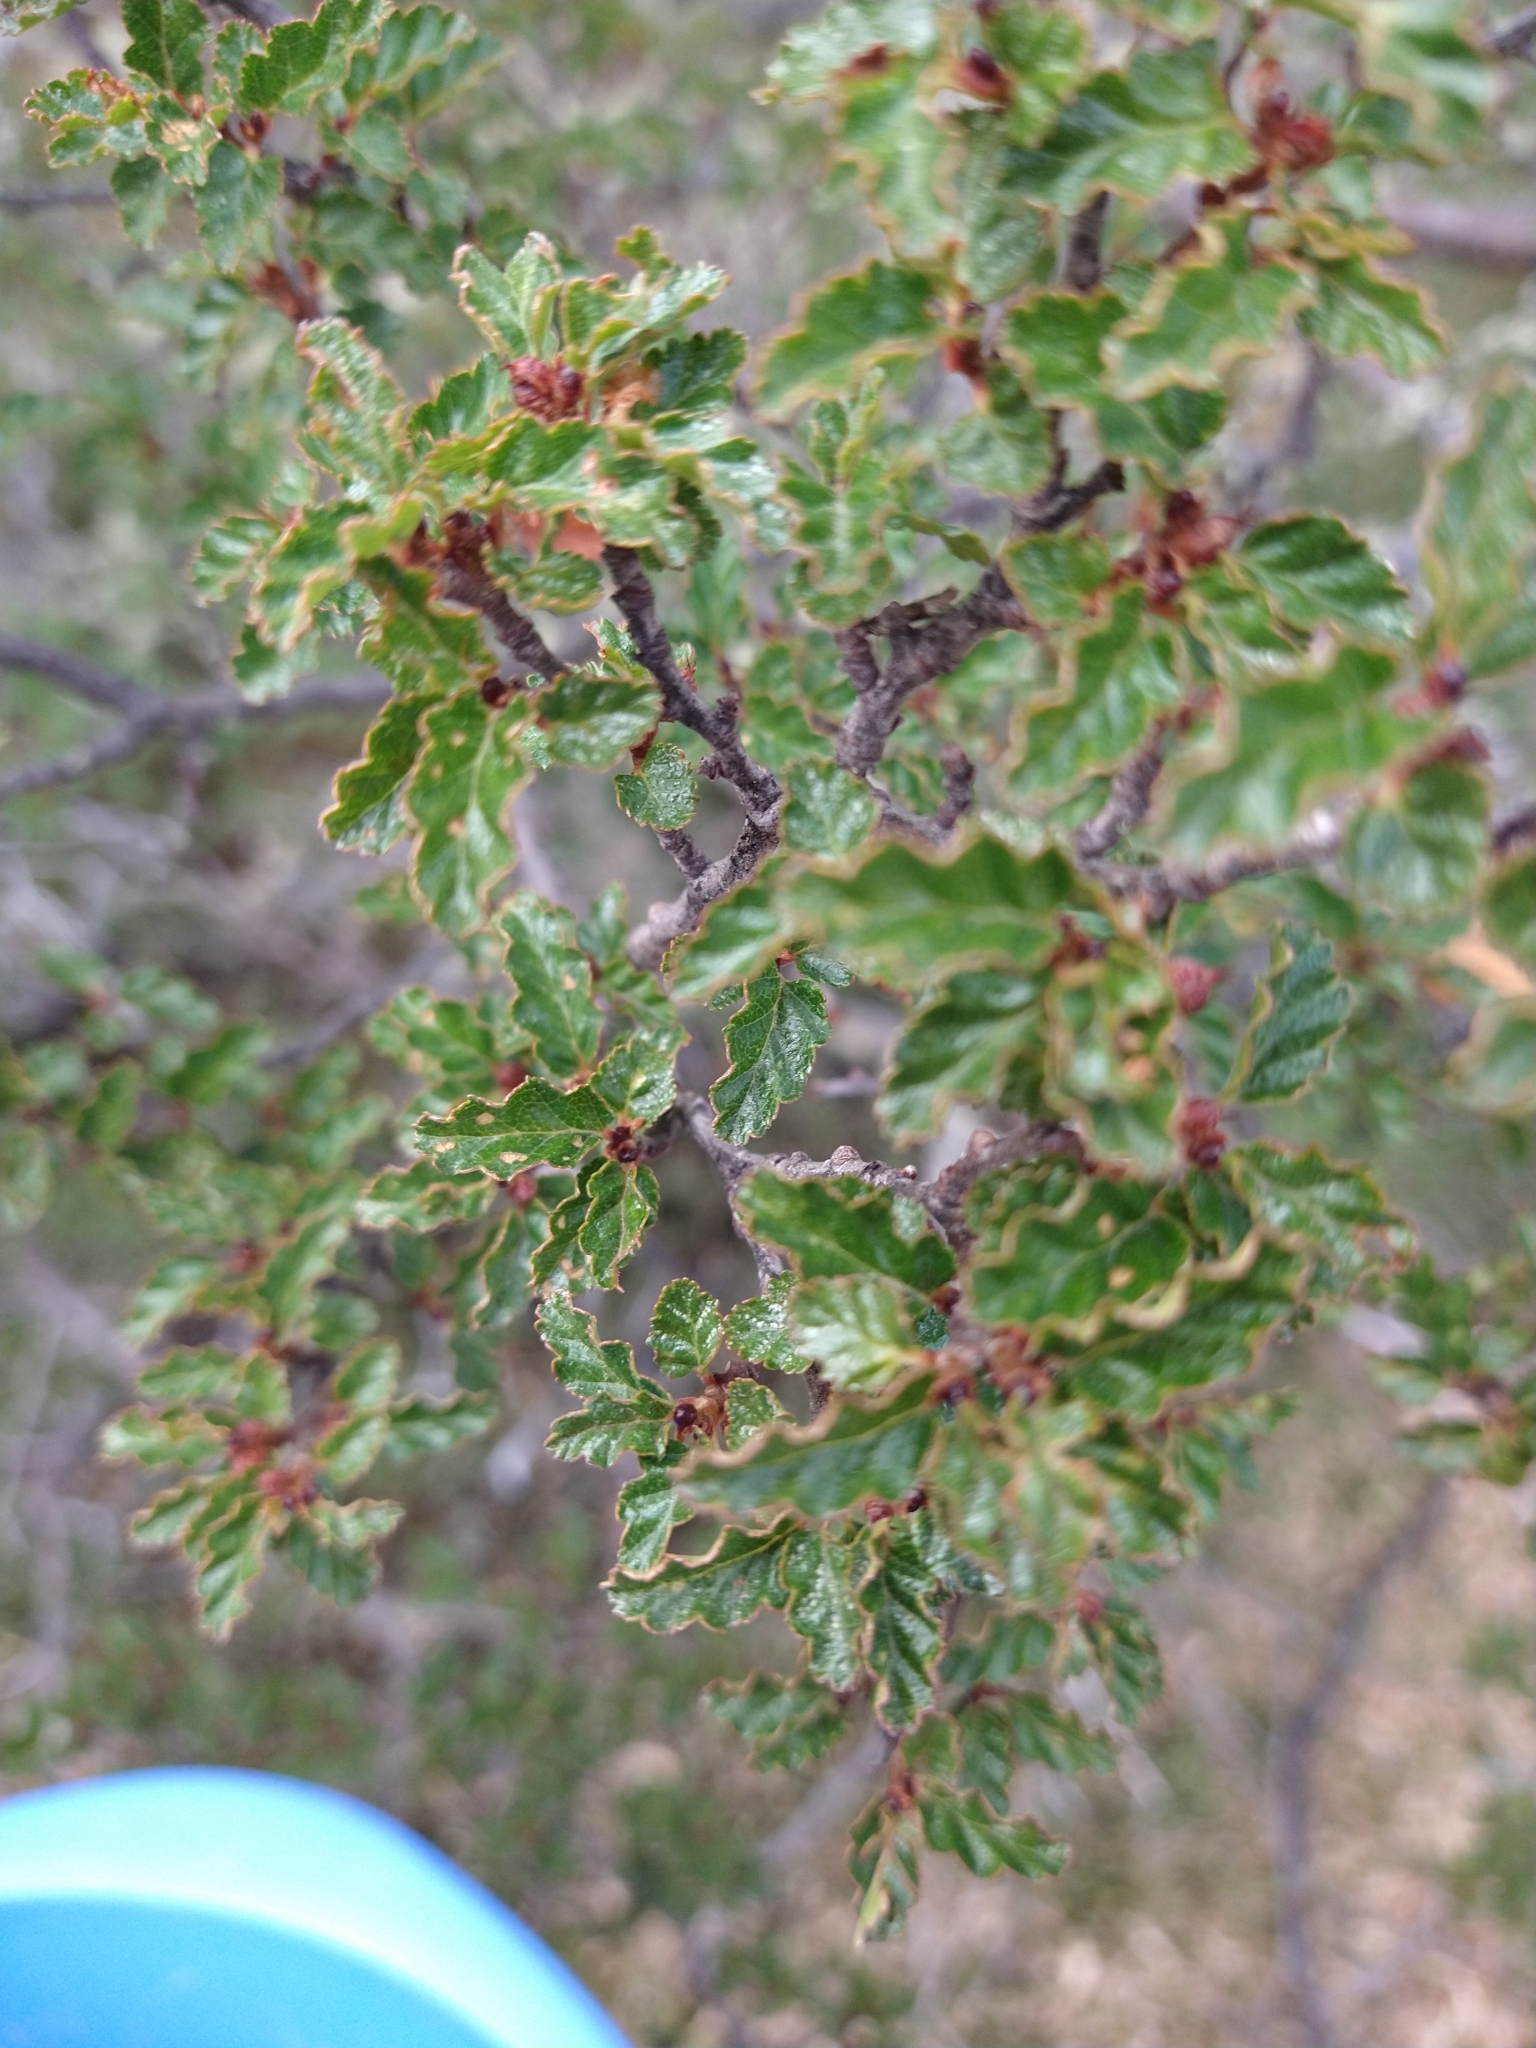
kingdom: Plantae
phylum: Tracheophyta
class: Magnoliopsida
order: Fagales
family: Nothofagaceae
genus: Nothofagus
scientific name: Nothofagus antarctica
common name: Antarctic beech
